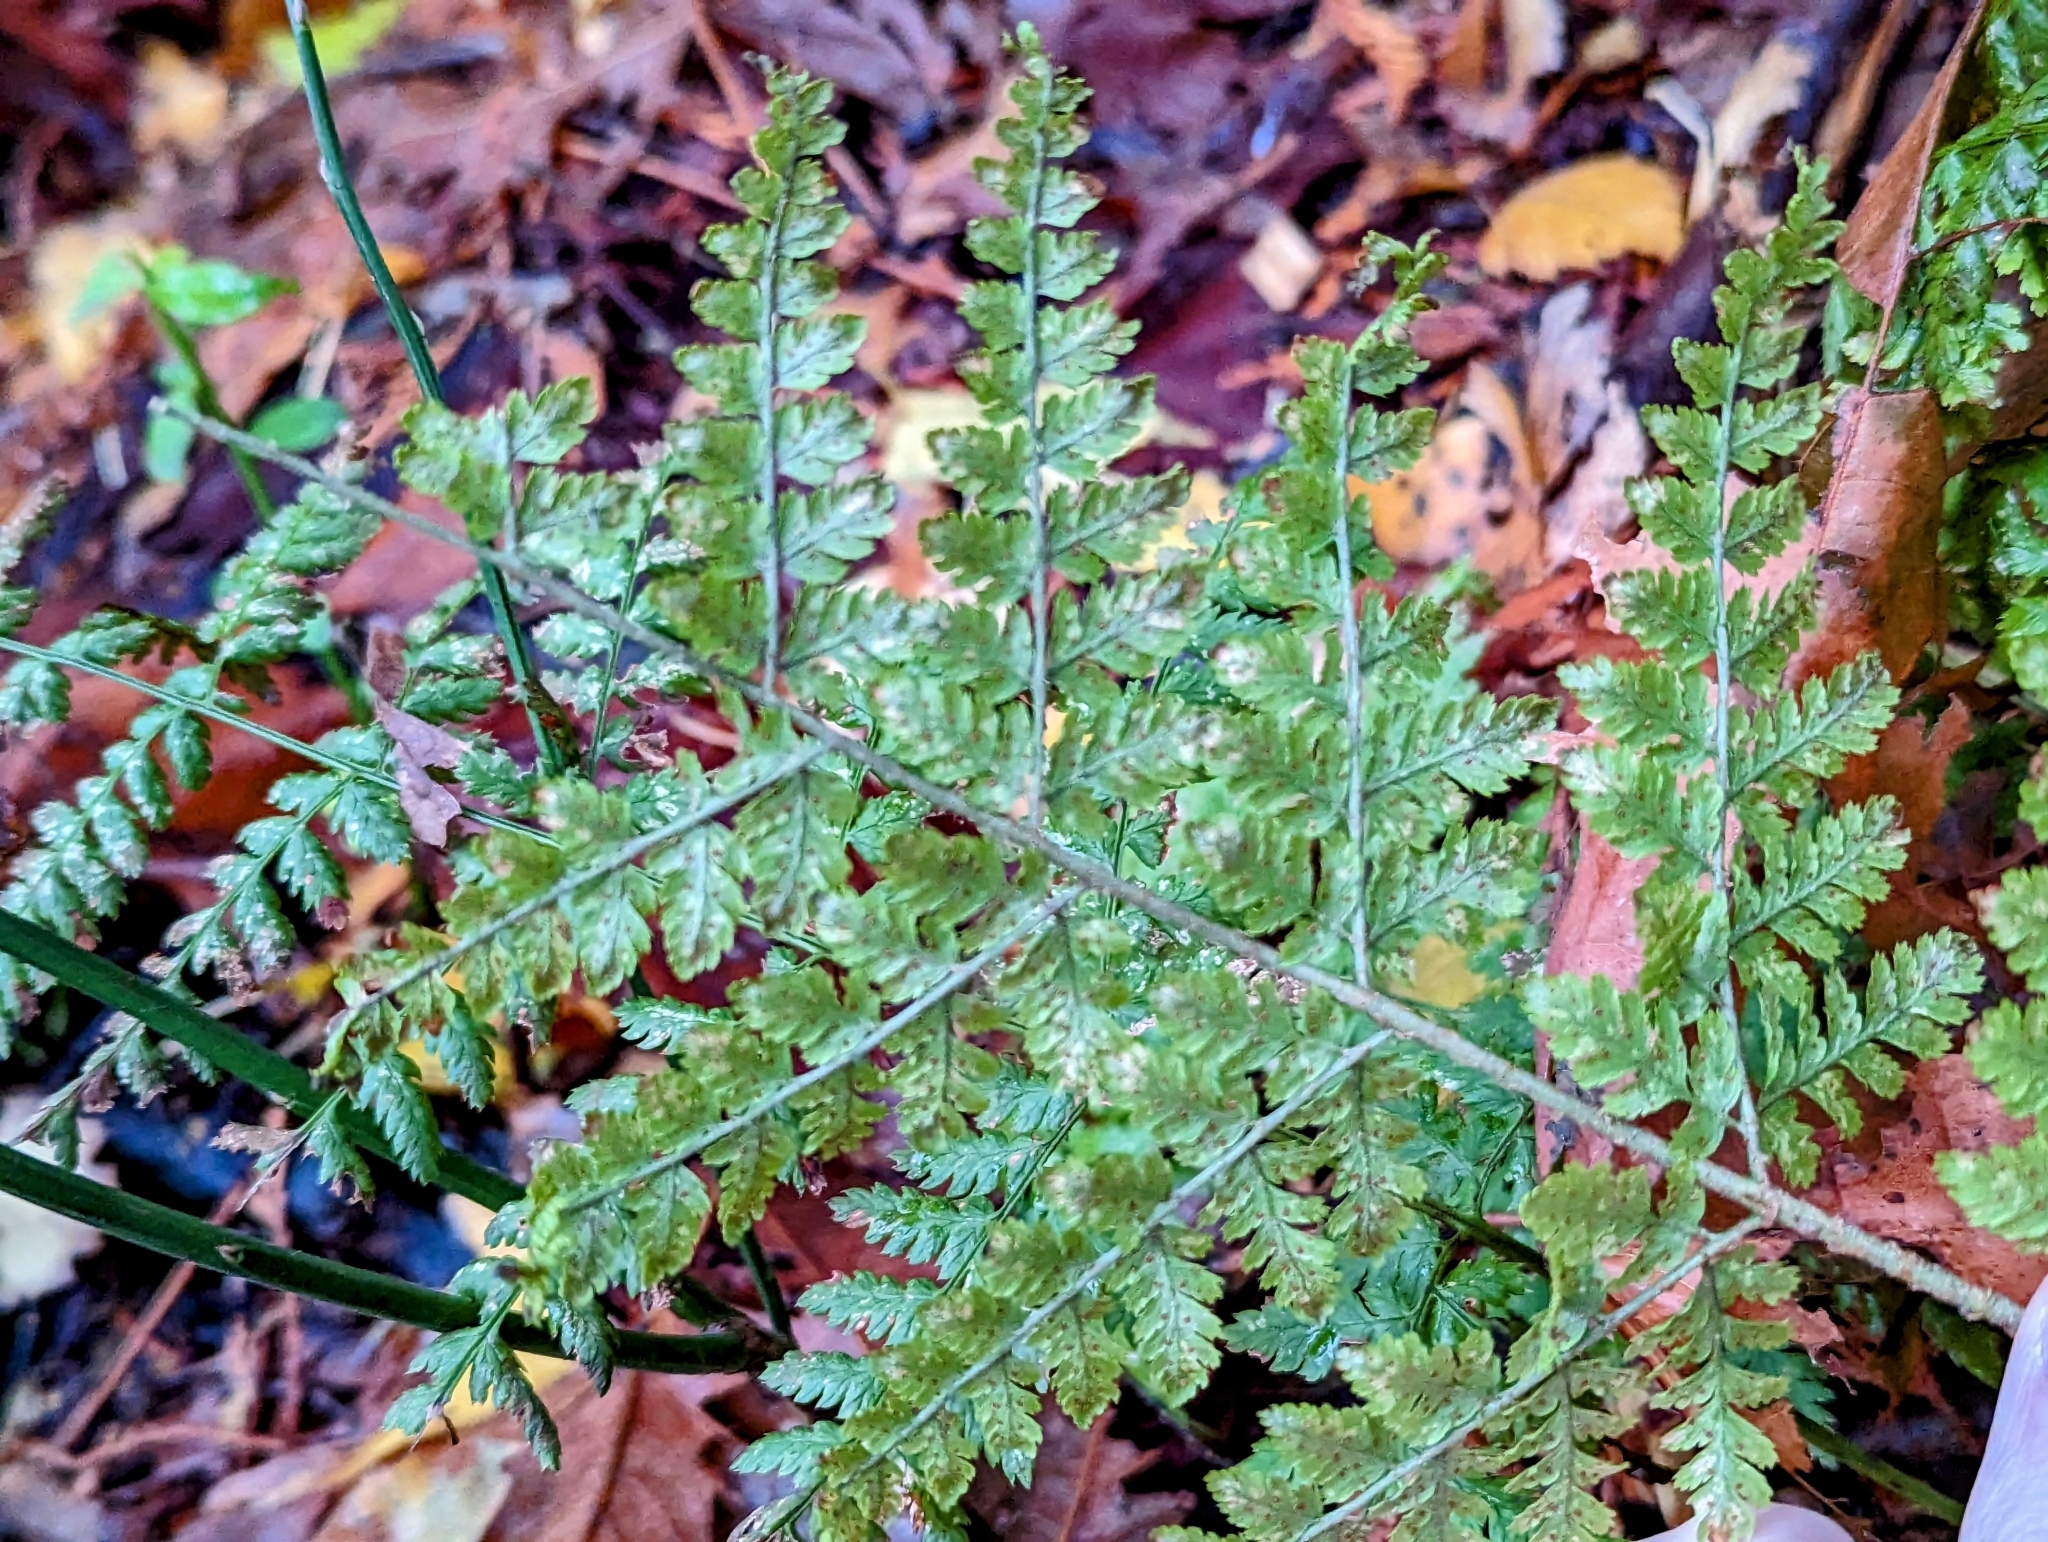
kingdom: Plantae
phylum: Tracheophyta
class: Polypodiopsida
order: Polypodiales
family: Dryopteridaceae
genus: Dryopteris
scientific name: Dryopteris expansa
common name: Northern buckler fern
